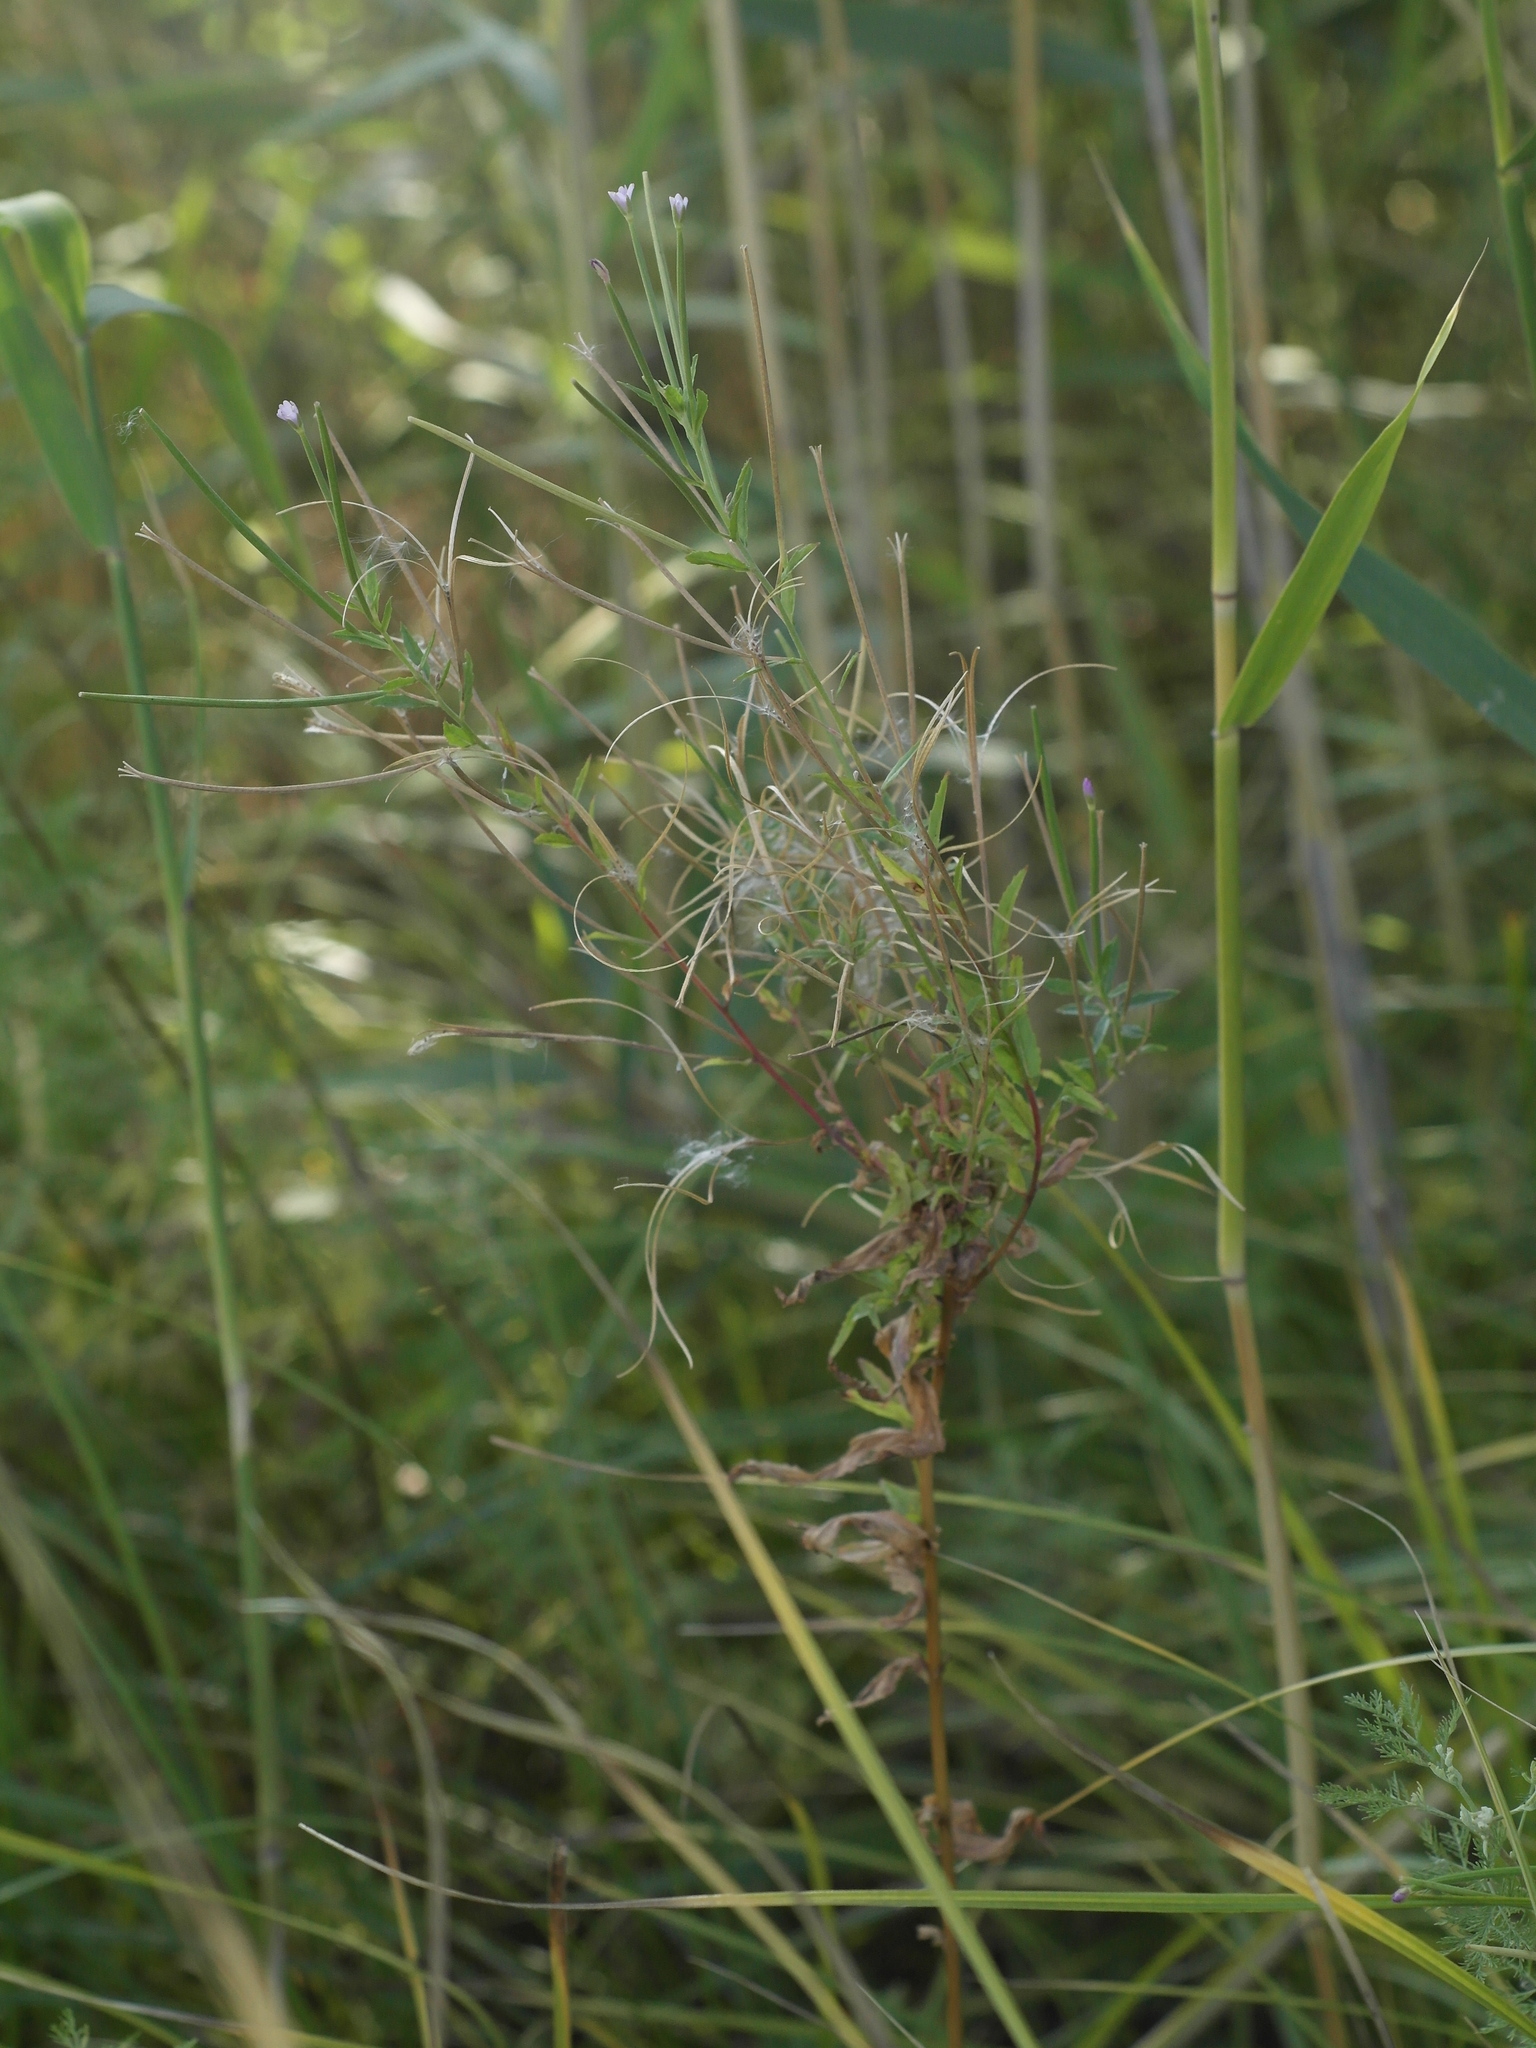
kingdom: Plantae
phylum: Tracheophyta
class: Magnoliopsida
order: Myrtales
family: Onagraceae
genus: Epilobium
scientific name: Epilobium tetragonum
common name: Square-stemmed willowherb
